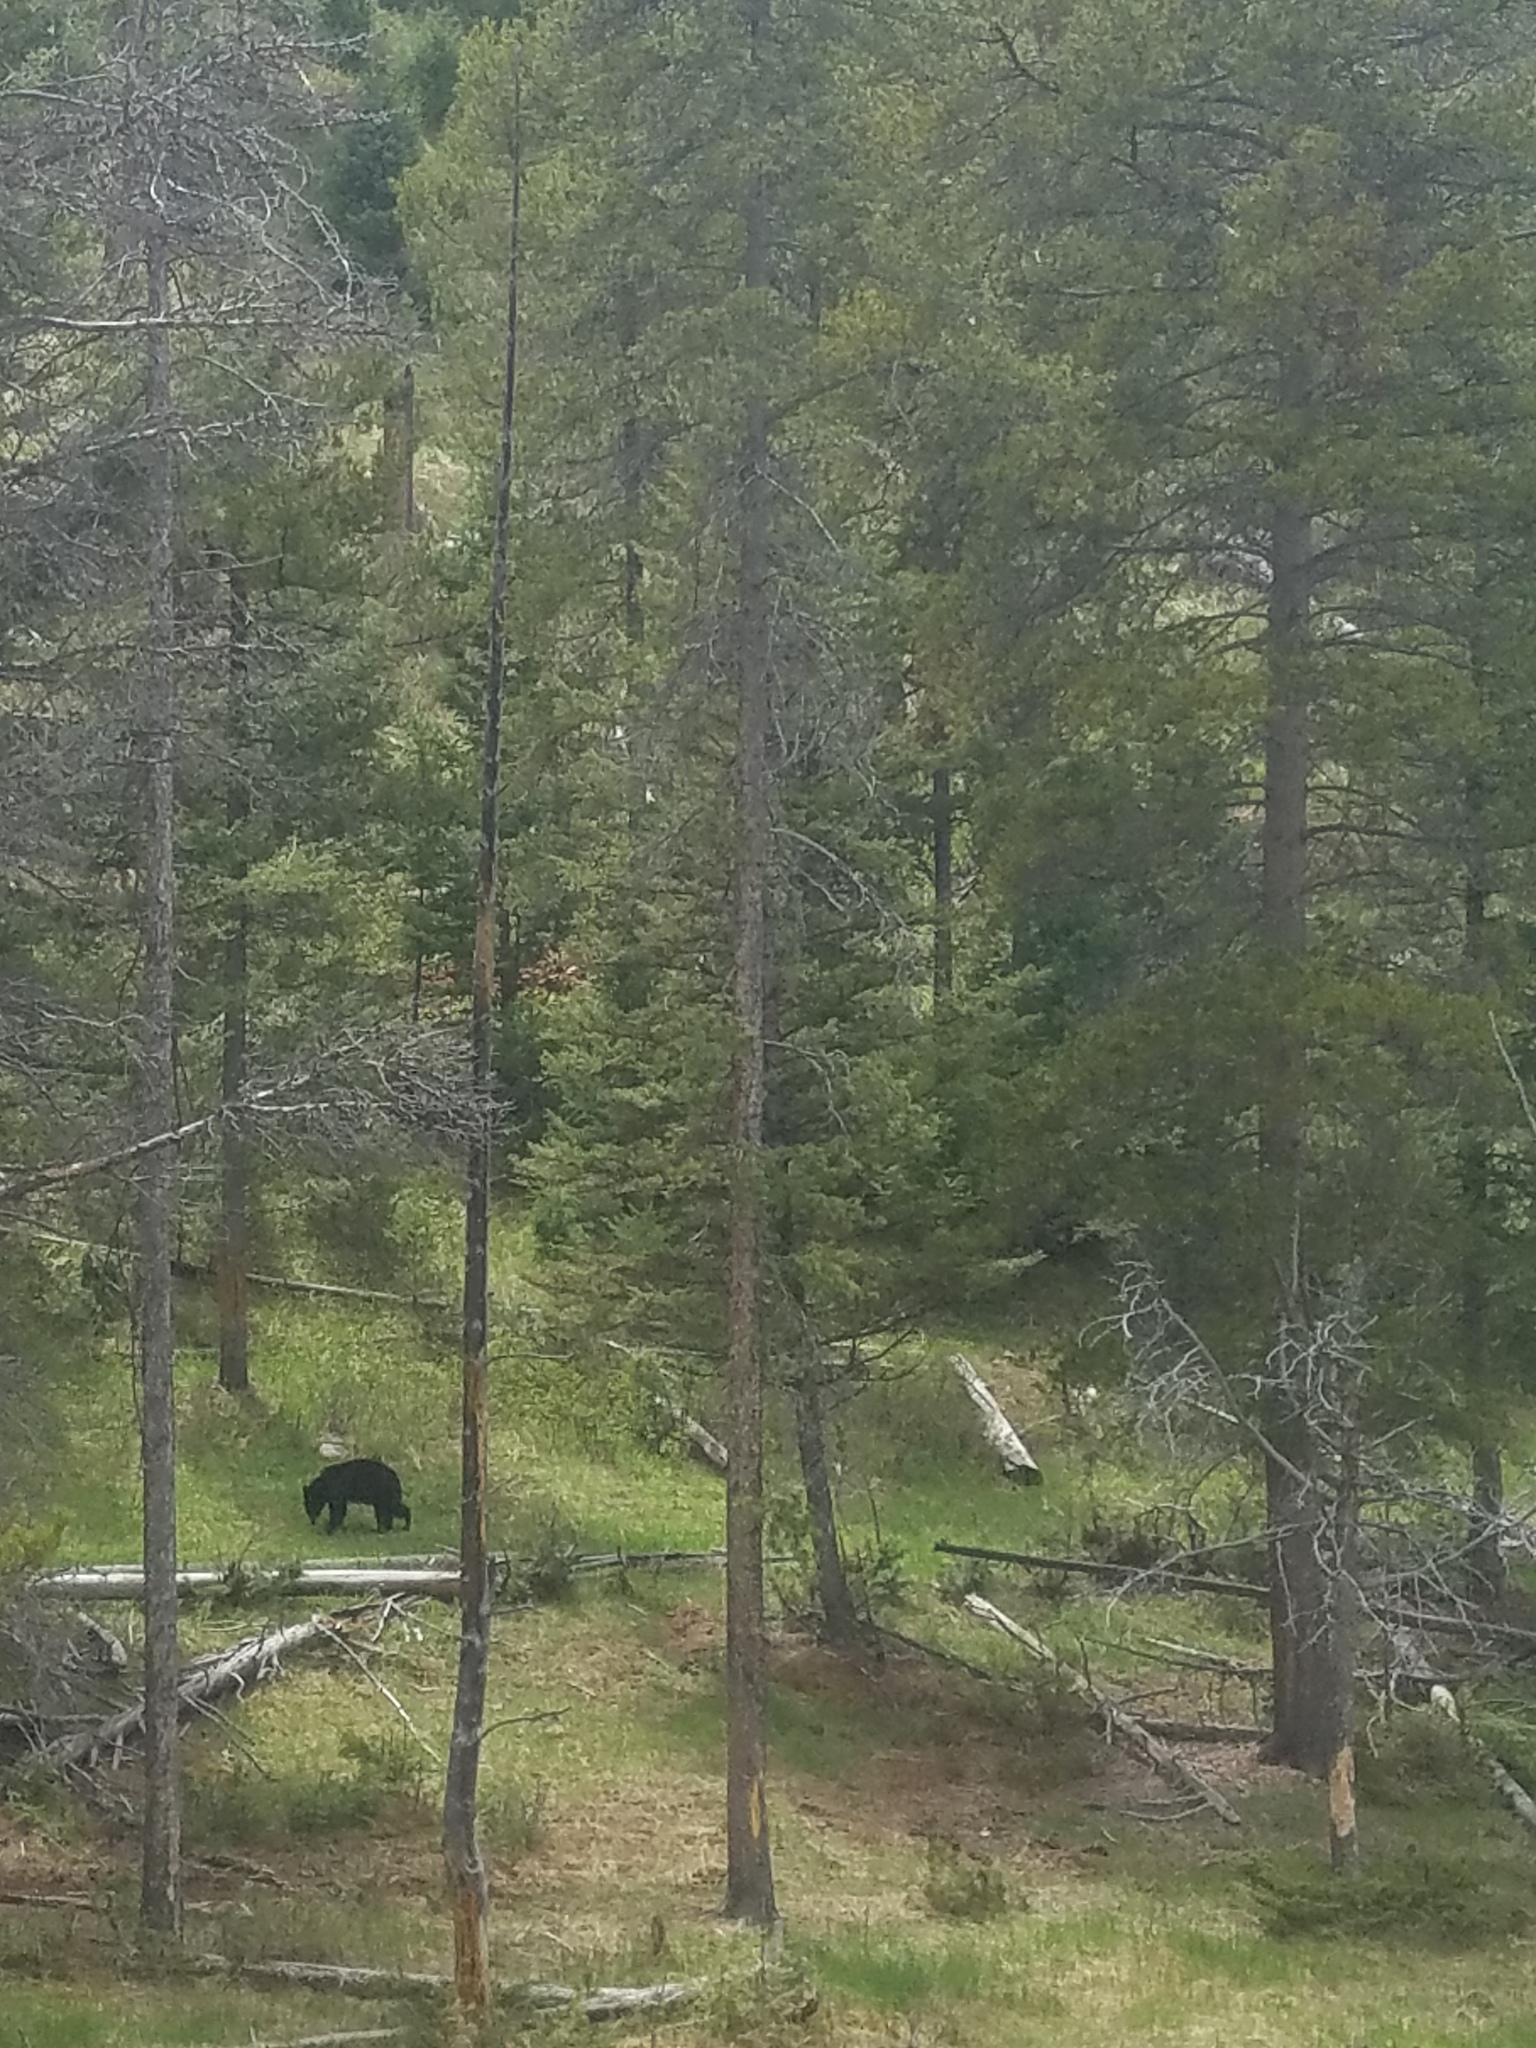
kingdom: Animalia
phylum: Chordata
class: Mammalia
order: Carnivora
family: Ursidae
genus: Ursus
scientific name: Ursus americanus
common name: American black bear
